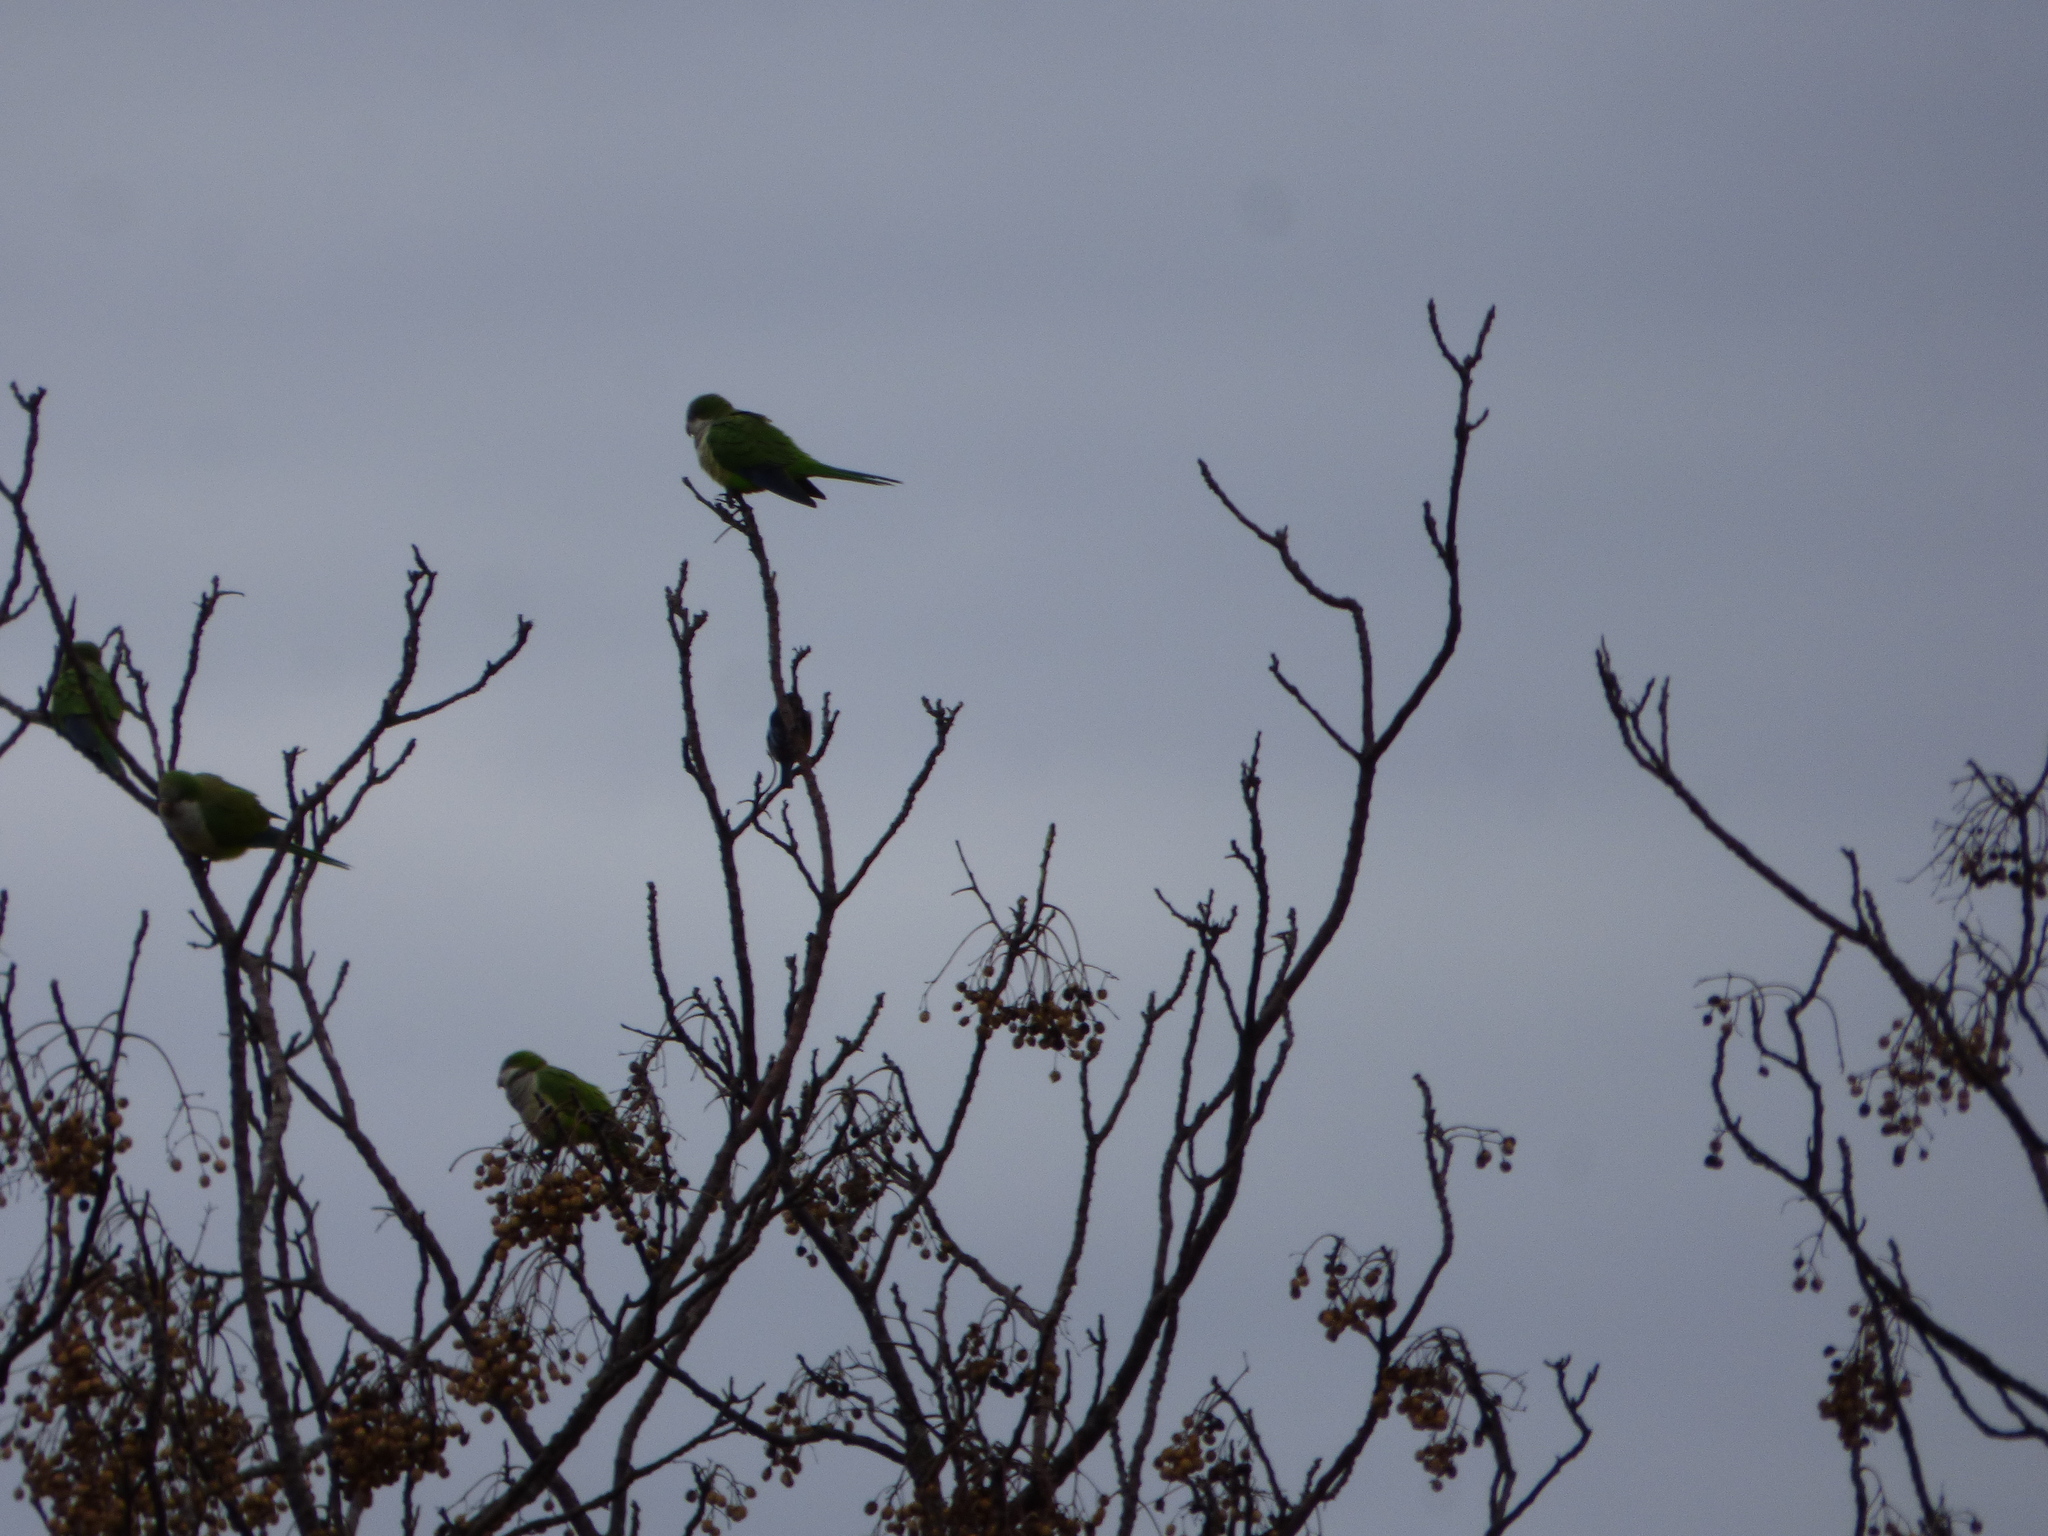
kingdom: Animalia
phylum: Chordata
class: Aves
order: Psittaciformes
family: Psittacidae
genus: Myiopsitta
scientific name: Myiopsitta monachus
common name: Monk parakeet
